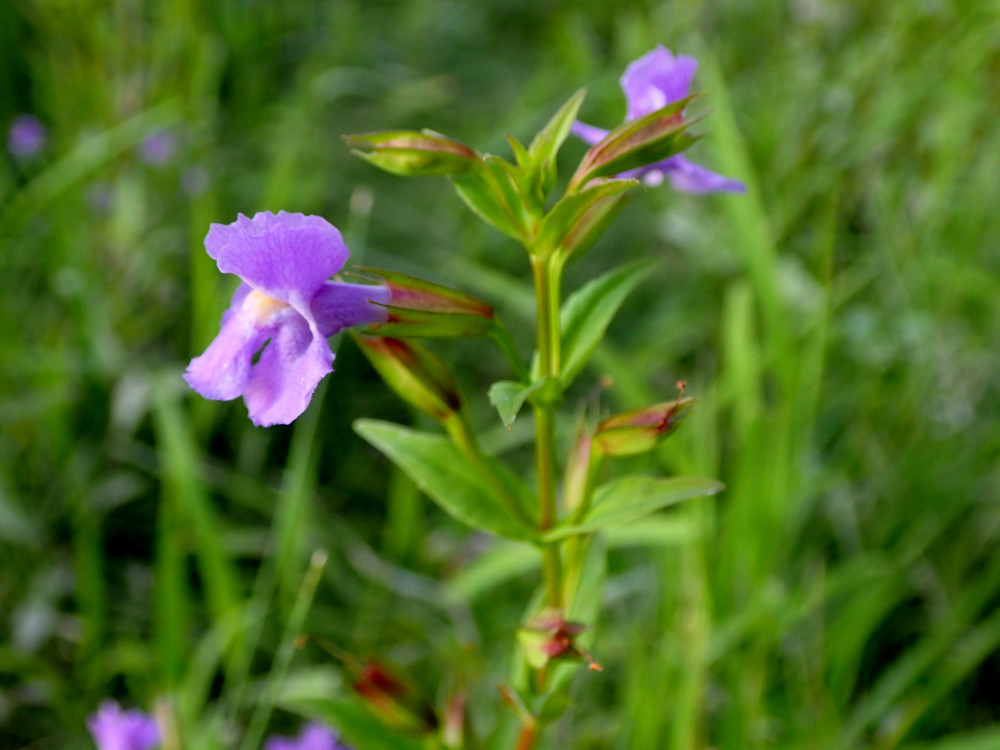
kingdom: Plantae
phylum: Tracheophyta
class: Magnoliopsida
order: Lamiales
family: Phrymaceae
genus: Mimulus
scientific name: Mimulus ringens
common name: Allegheny monkeyflower
